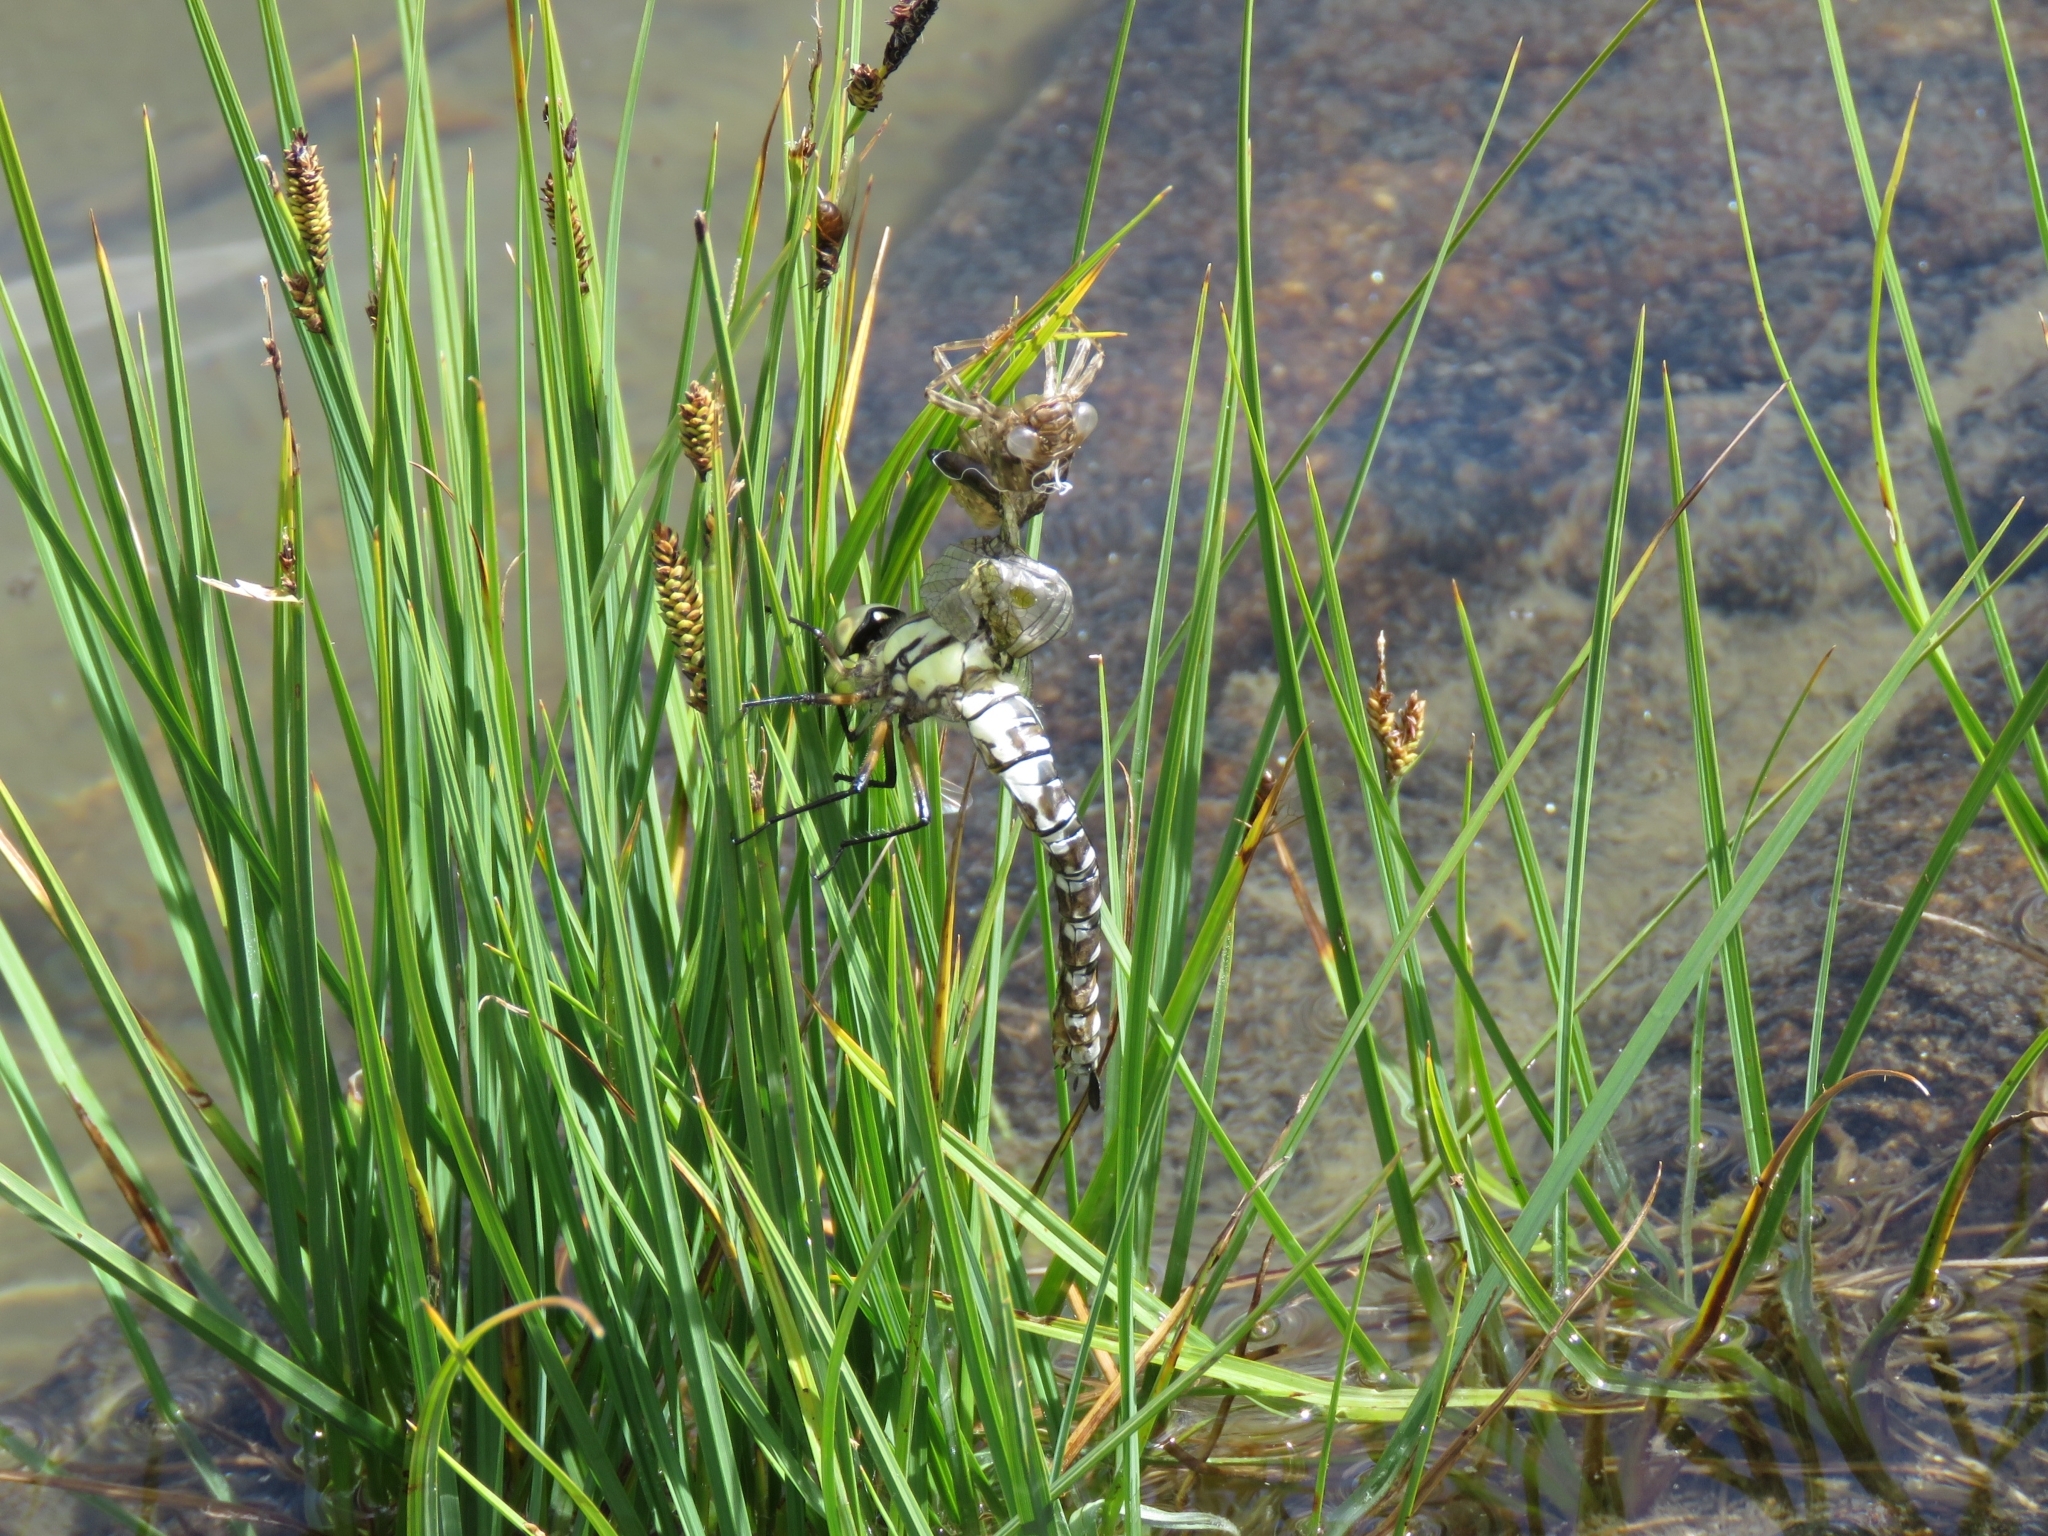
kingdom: Animalia
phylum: Arthropoda
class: Insecta
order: Odonata
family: Aeshnidae
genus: Aeshna
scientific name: Aeshna cyanea
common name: Southern hawker
